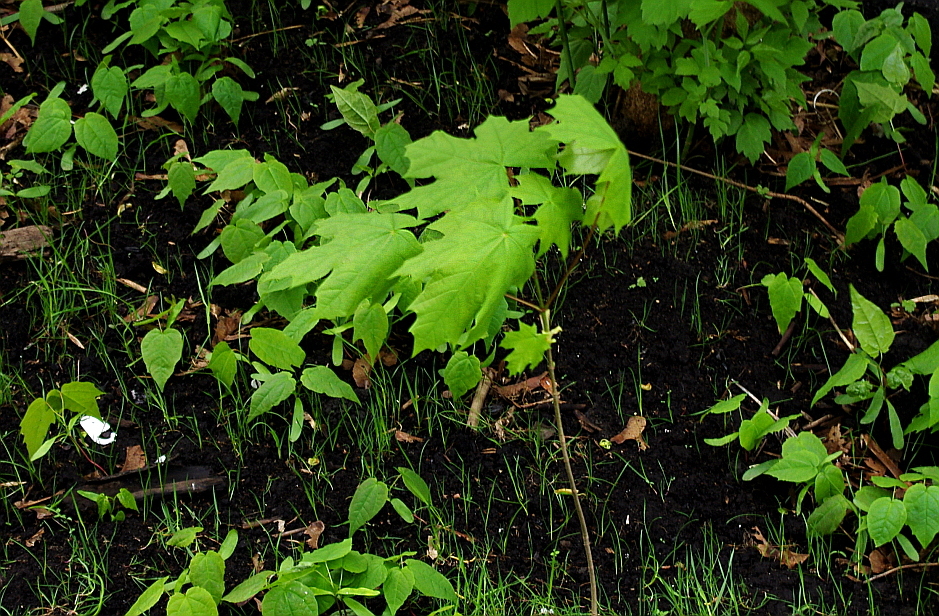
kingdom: Plantae
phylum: Tracheophyta
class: Magnoliopsida
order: Sapindales
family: Sapindaceae
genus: Acer
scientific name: Acer platanoides
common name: Norway maple
